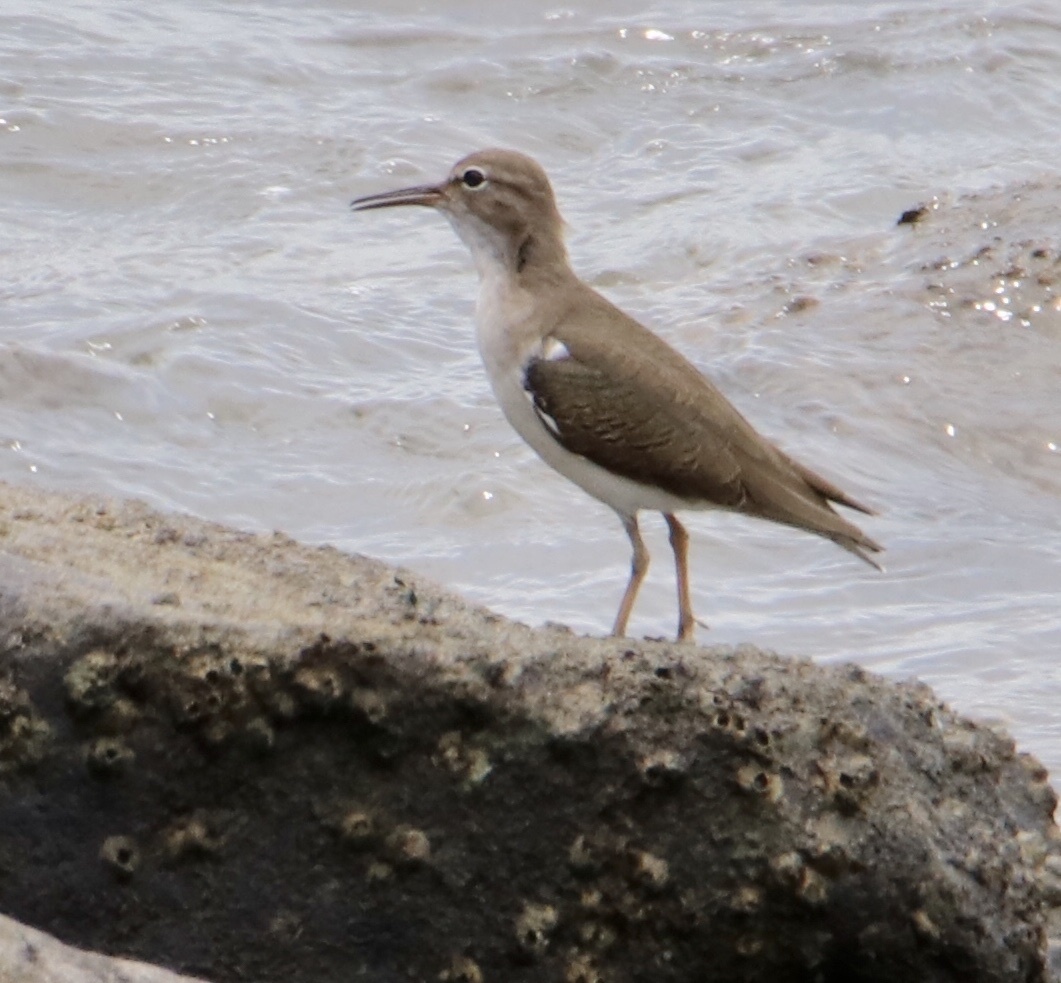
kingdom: Animalia
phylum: Chordata
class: Aves
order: Charadriiformes
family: Scolopacidae
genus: Actitis
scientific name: Actitis macularius
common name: Spotted sandpiper
